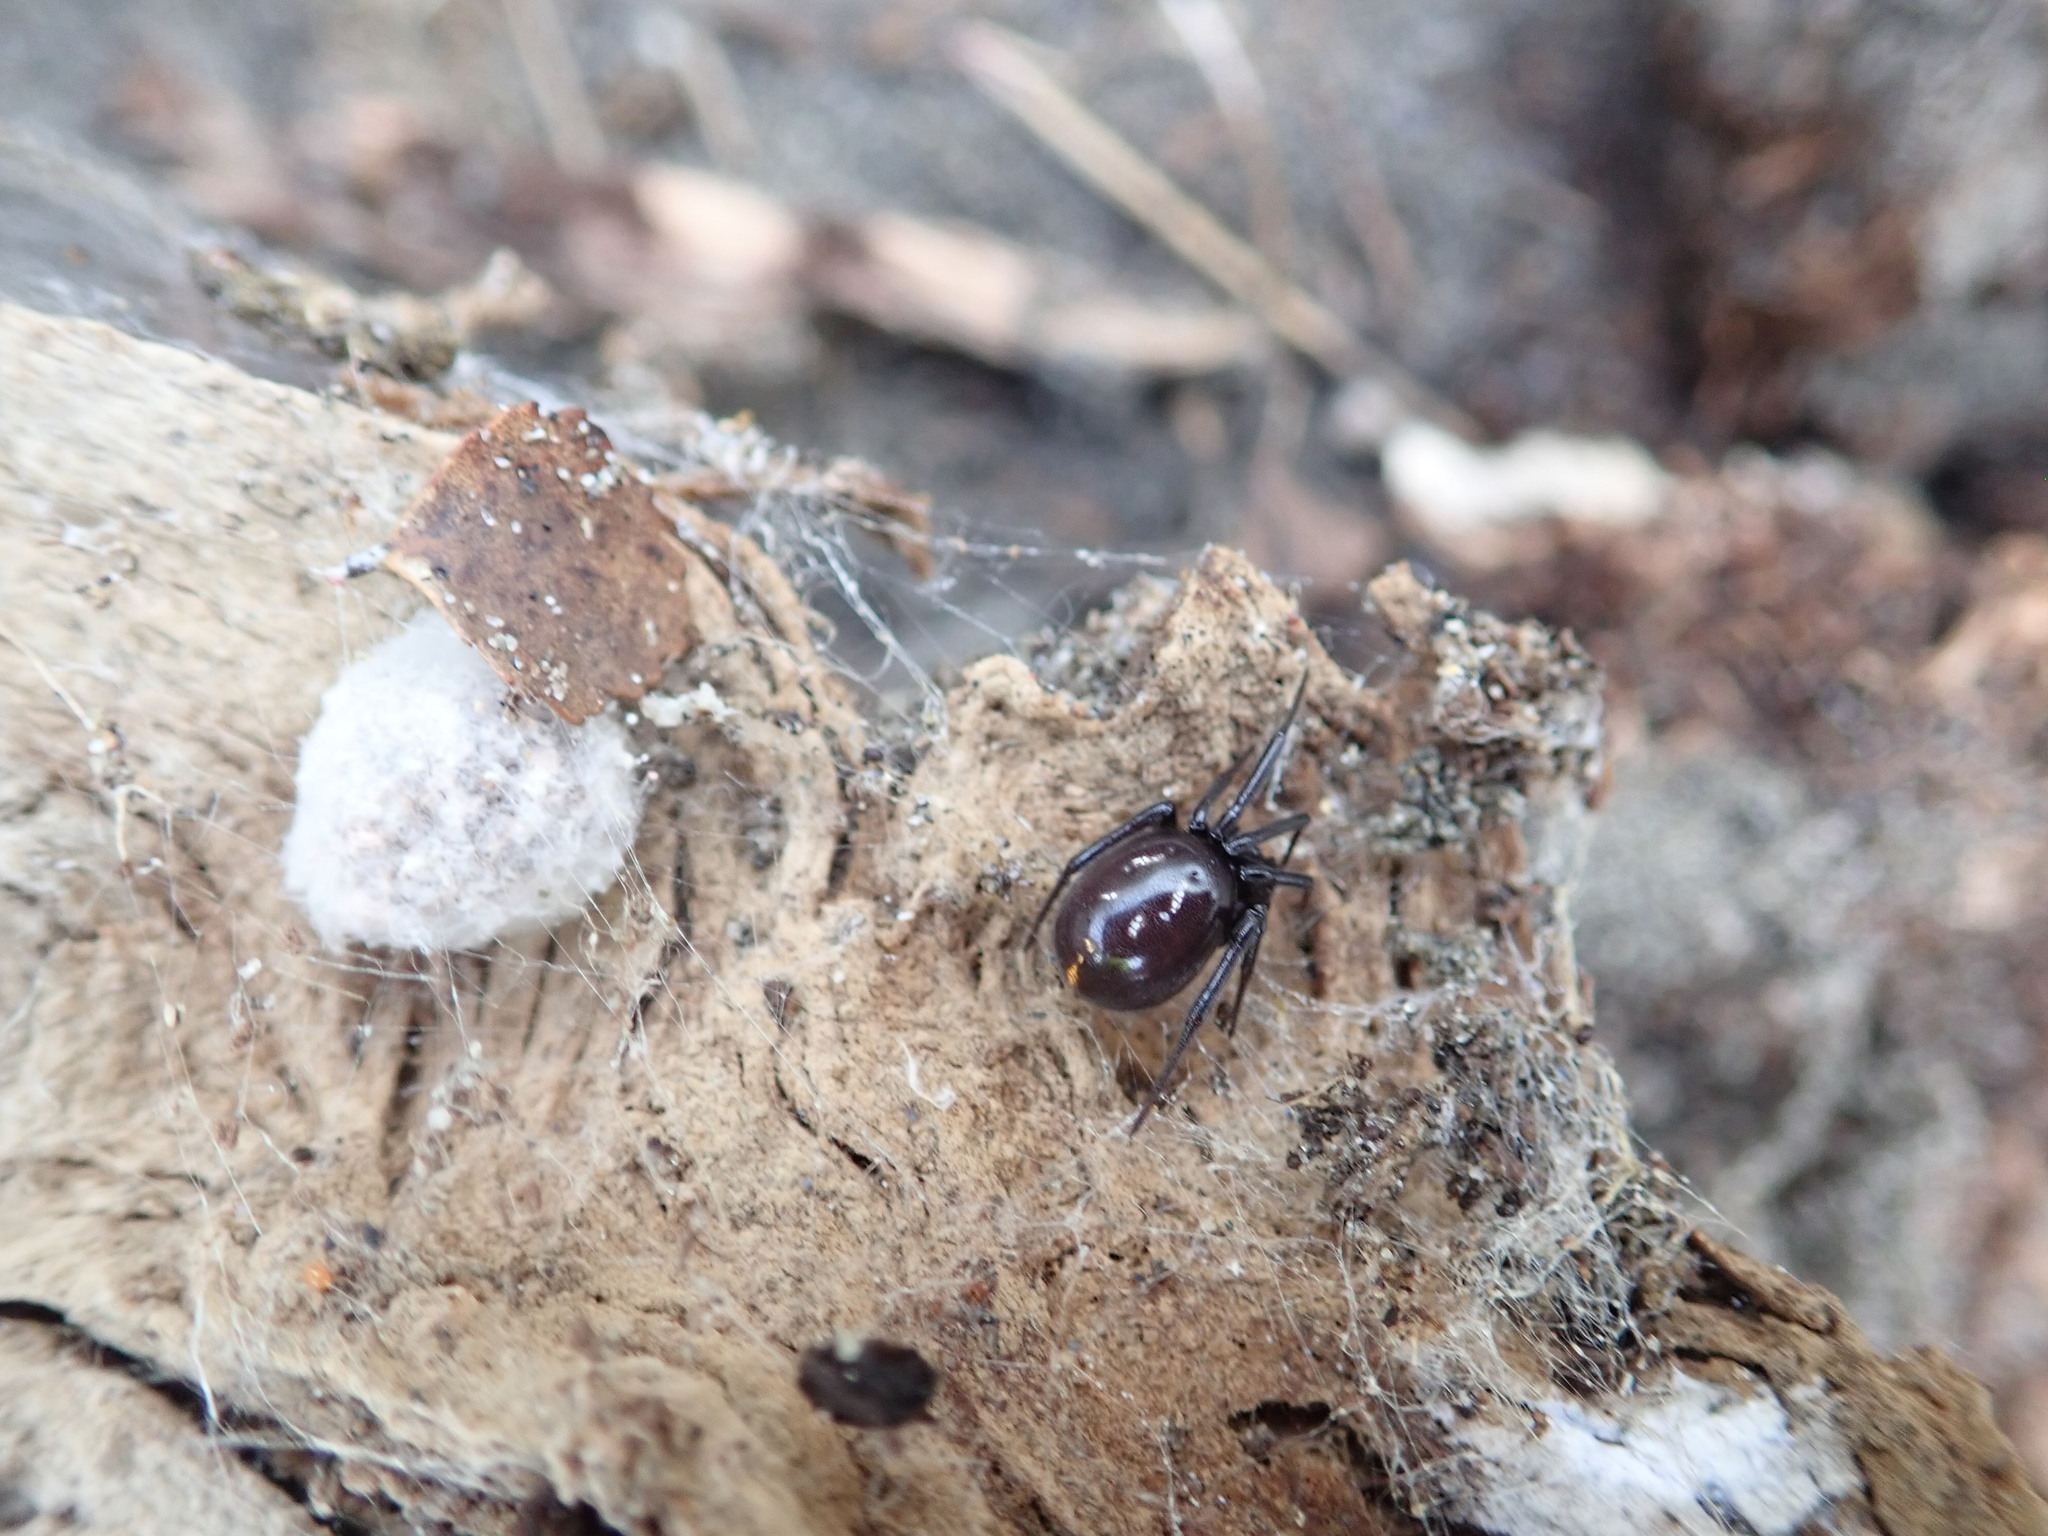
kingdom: Animalia
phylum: Arthropoda
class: Arachnida
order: Araneae
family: Theridiidae
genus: Steatoda
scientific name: Steatoda capensis
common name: Cobweb weaver
